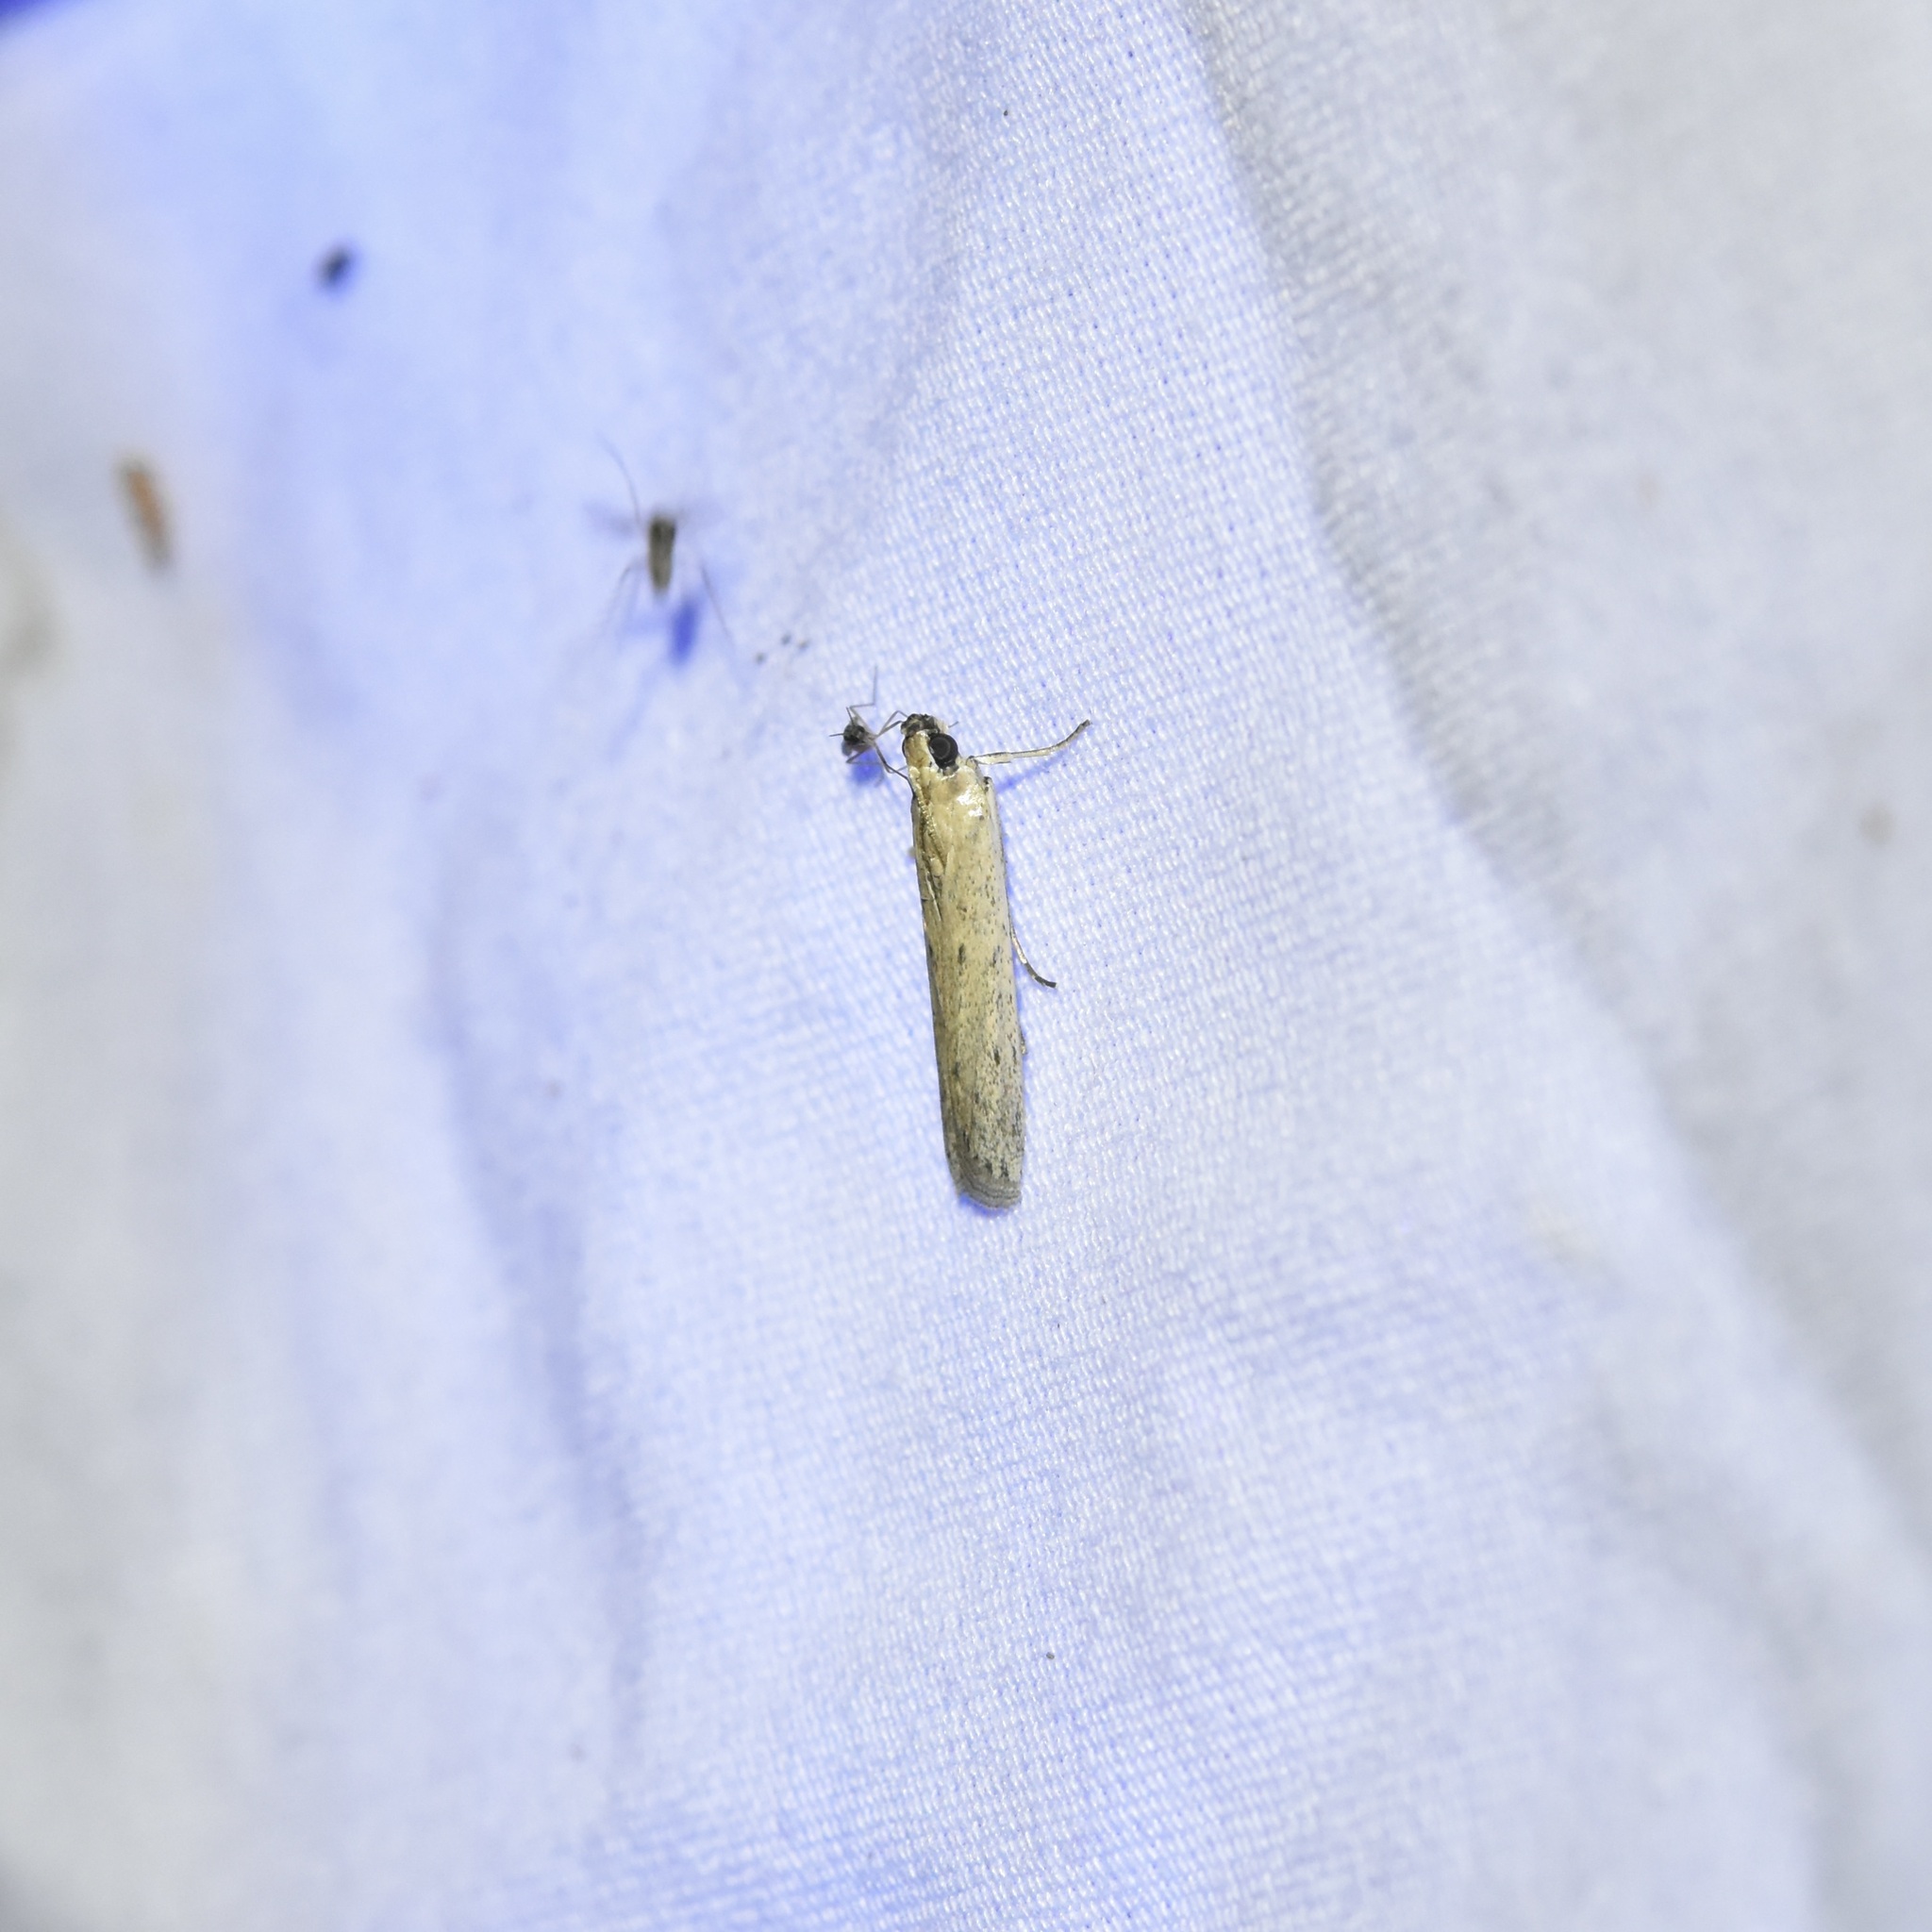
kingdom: Animalia
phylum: Arthropoda
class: Insecta
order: Lepidoptera
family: Pyralidae
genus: Homoeosoma
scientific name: Homoeosoma electella
